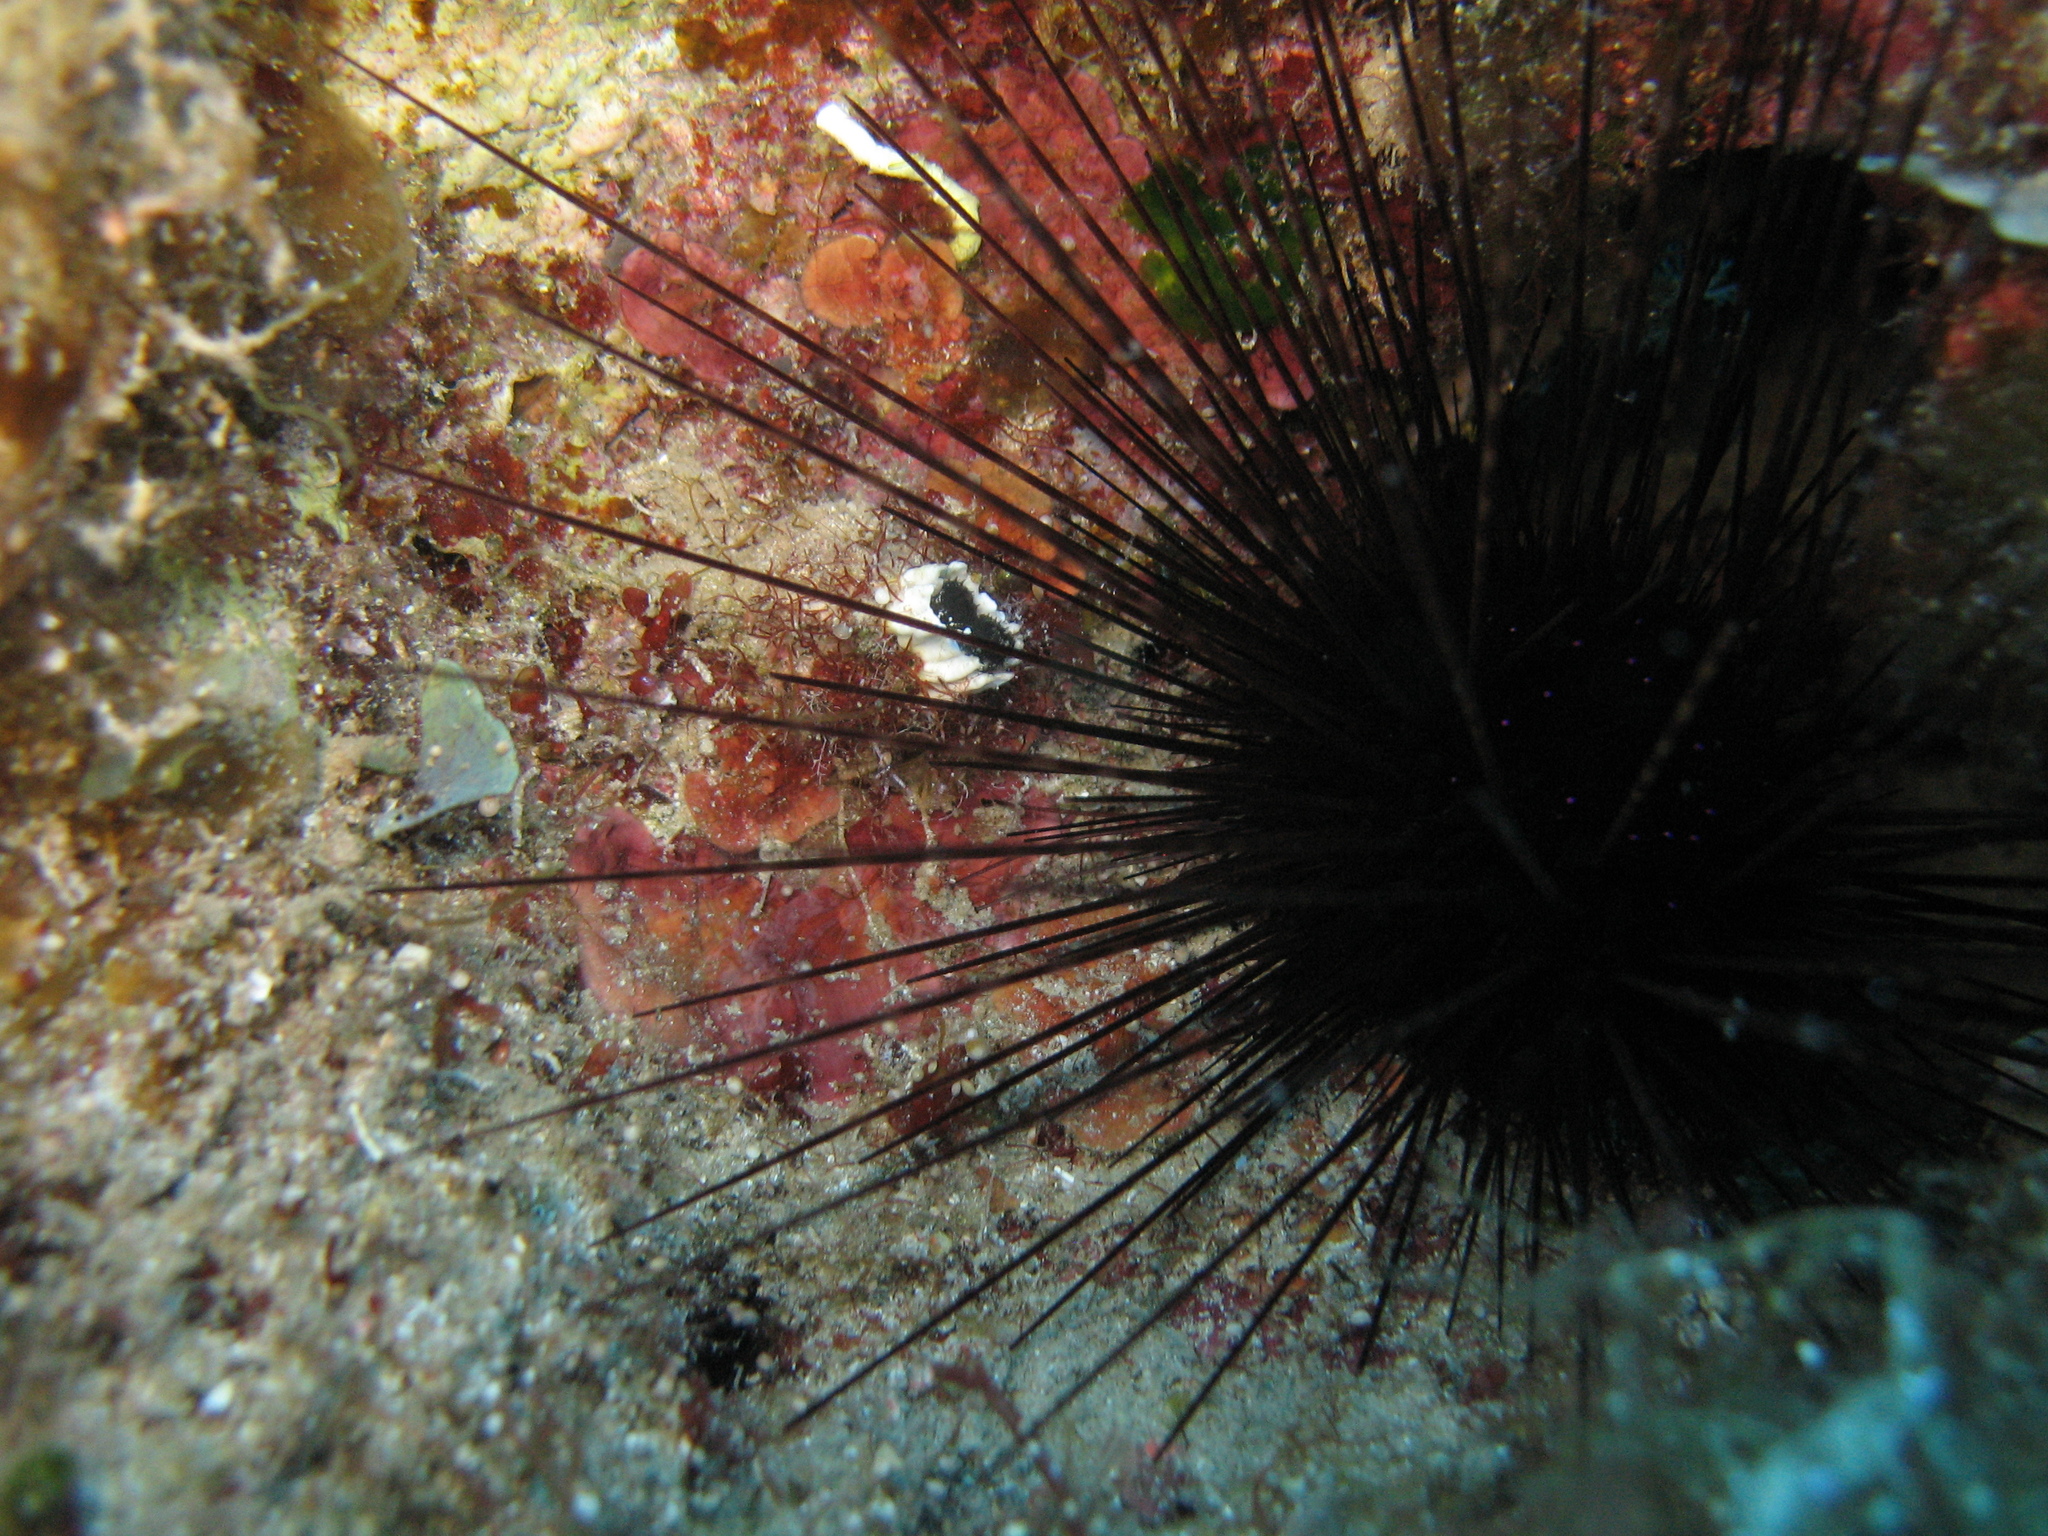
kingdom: Animalia
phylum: Echinodermata
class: Echinoidea
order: Diadematoida
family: Diadematidae
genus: Centrostephanus
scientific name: Centrostephanus longispinus
